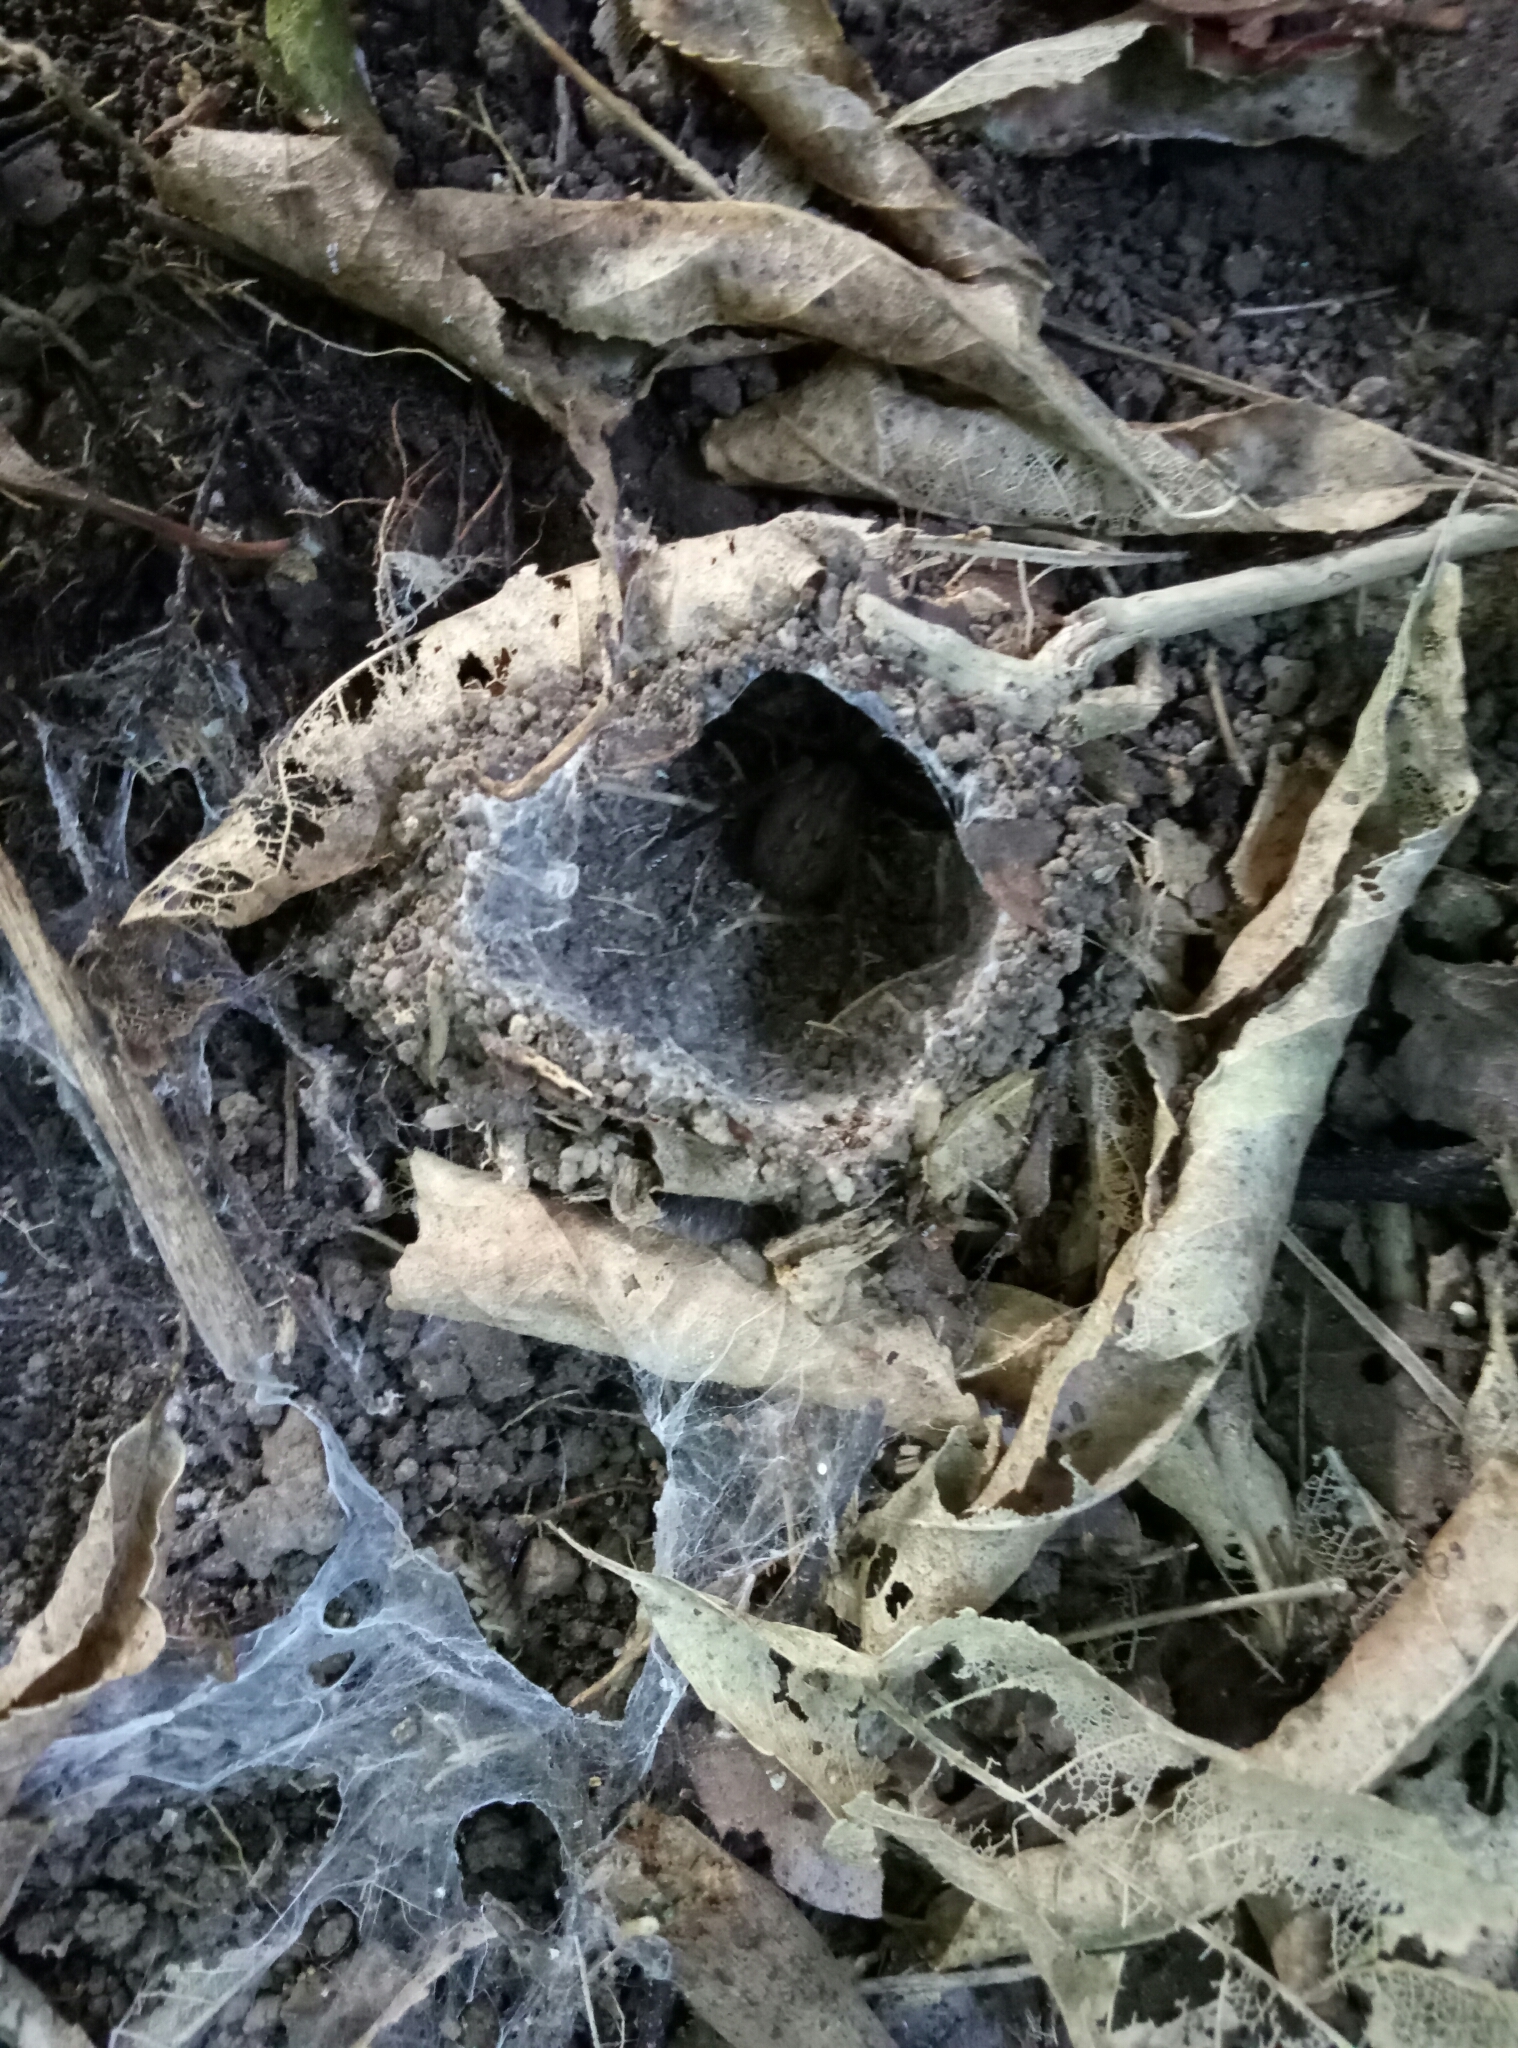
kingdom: Animalia
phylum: Arthropoda
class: Arachnida
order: Araneae
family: Zoropsidae
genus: Uliodon
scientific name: Uliodon albopunctatus
